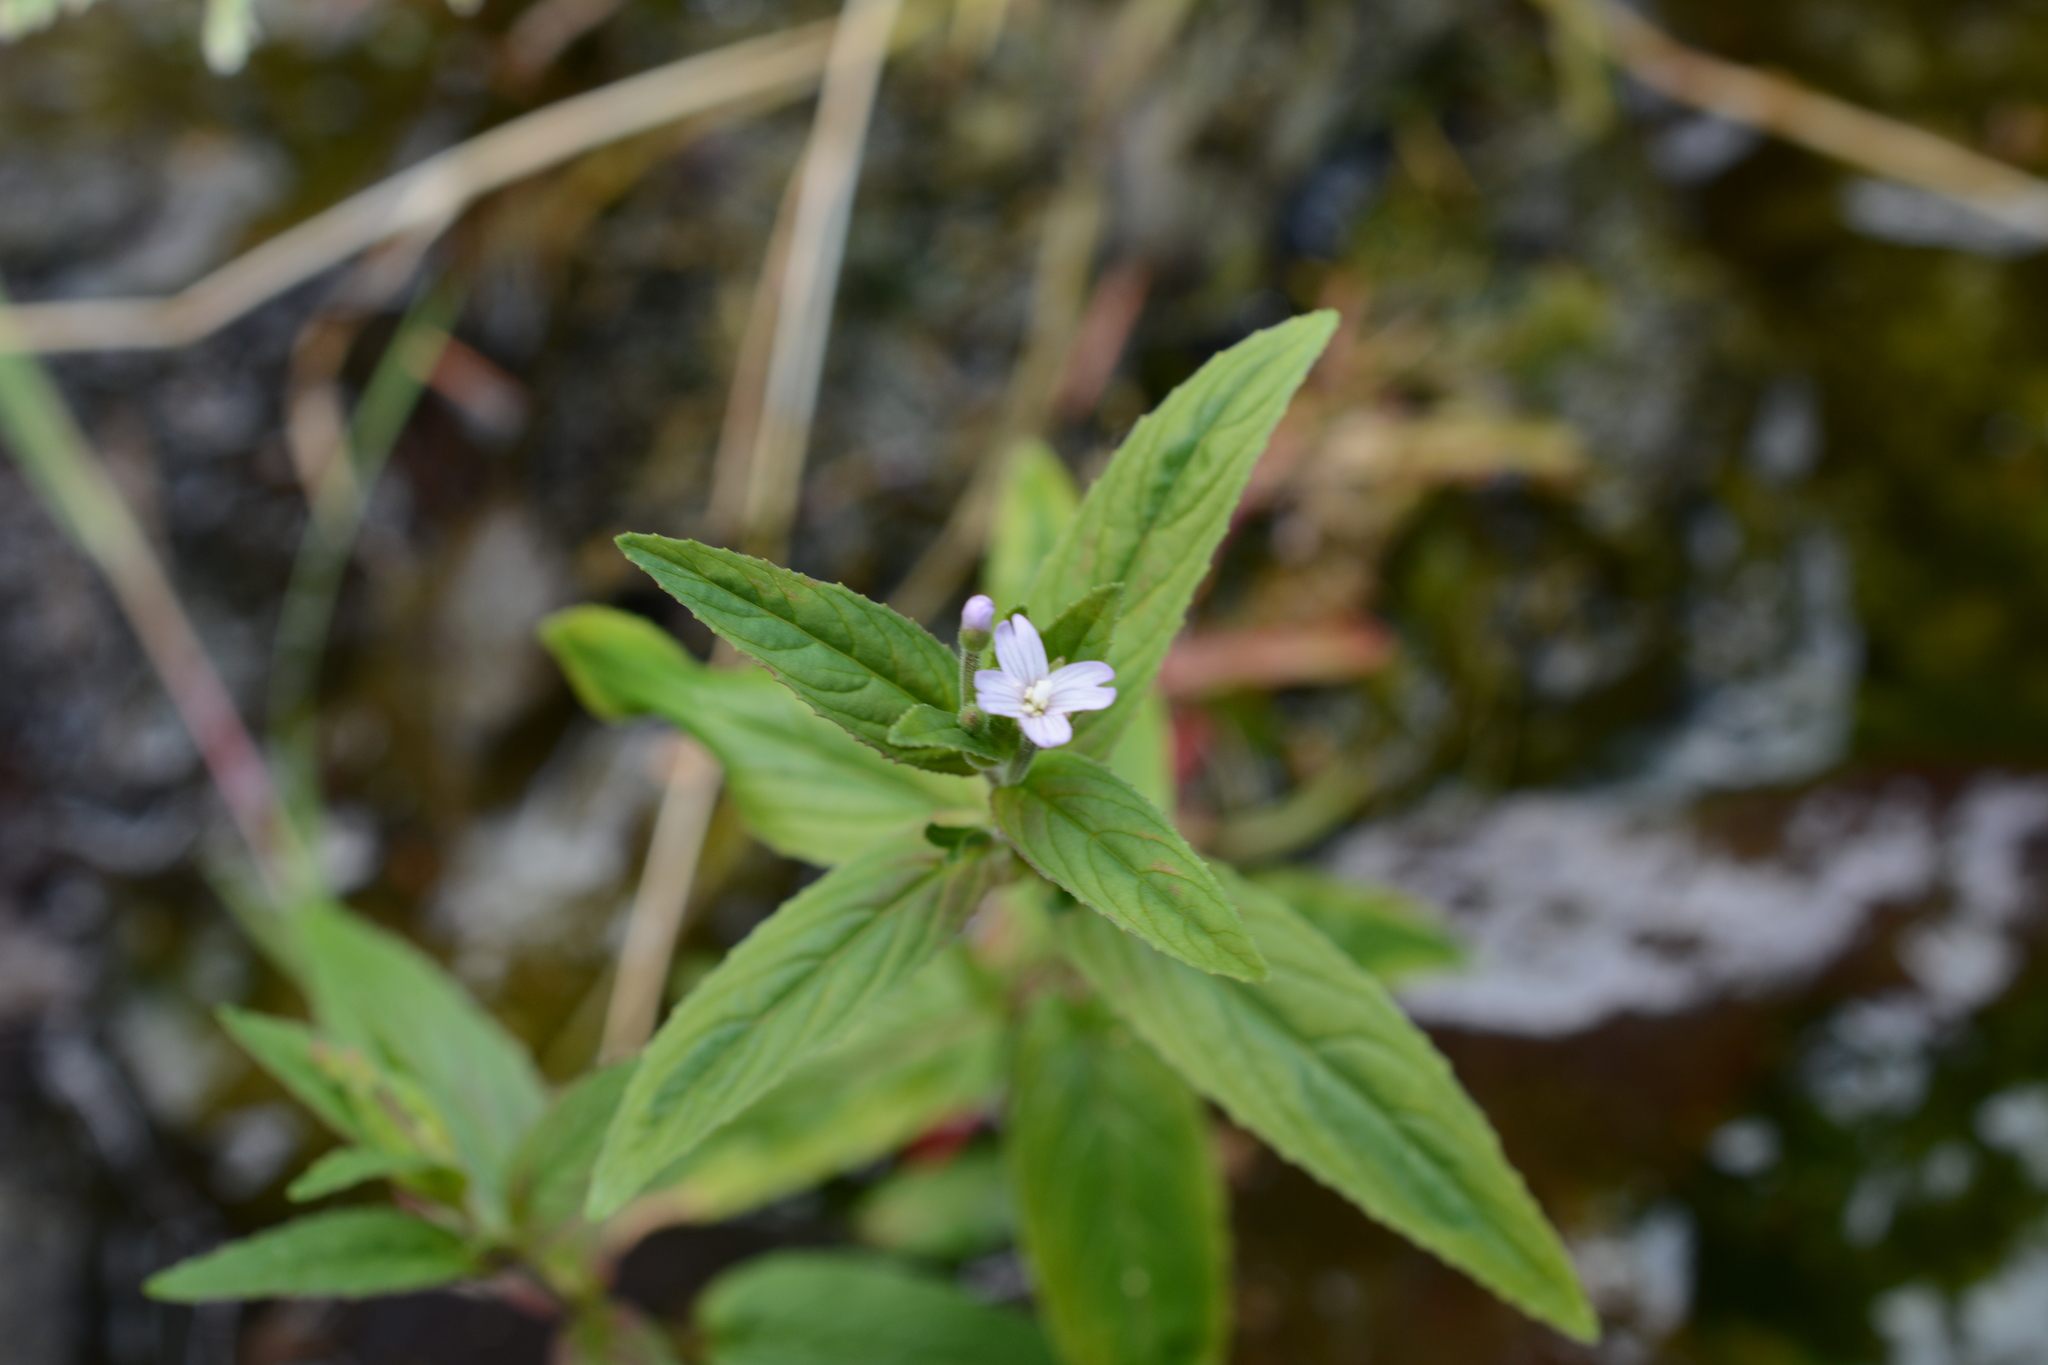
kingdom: Plantae
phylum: Tracheophyta
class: Magnoliopsida
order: Myrtales
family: Onagraceae
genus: Epilobium
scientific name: Epilobium ciliatum
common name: American willowherb
